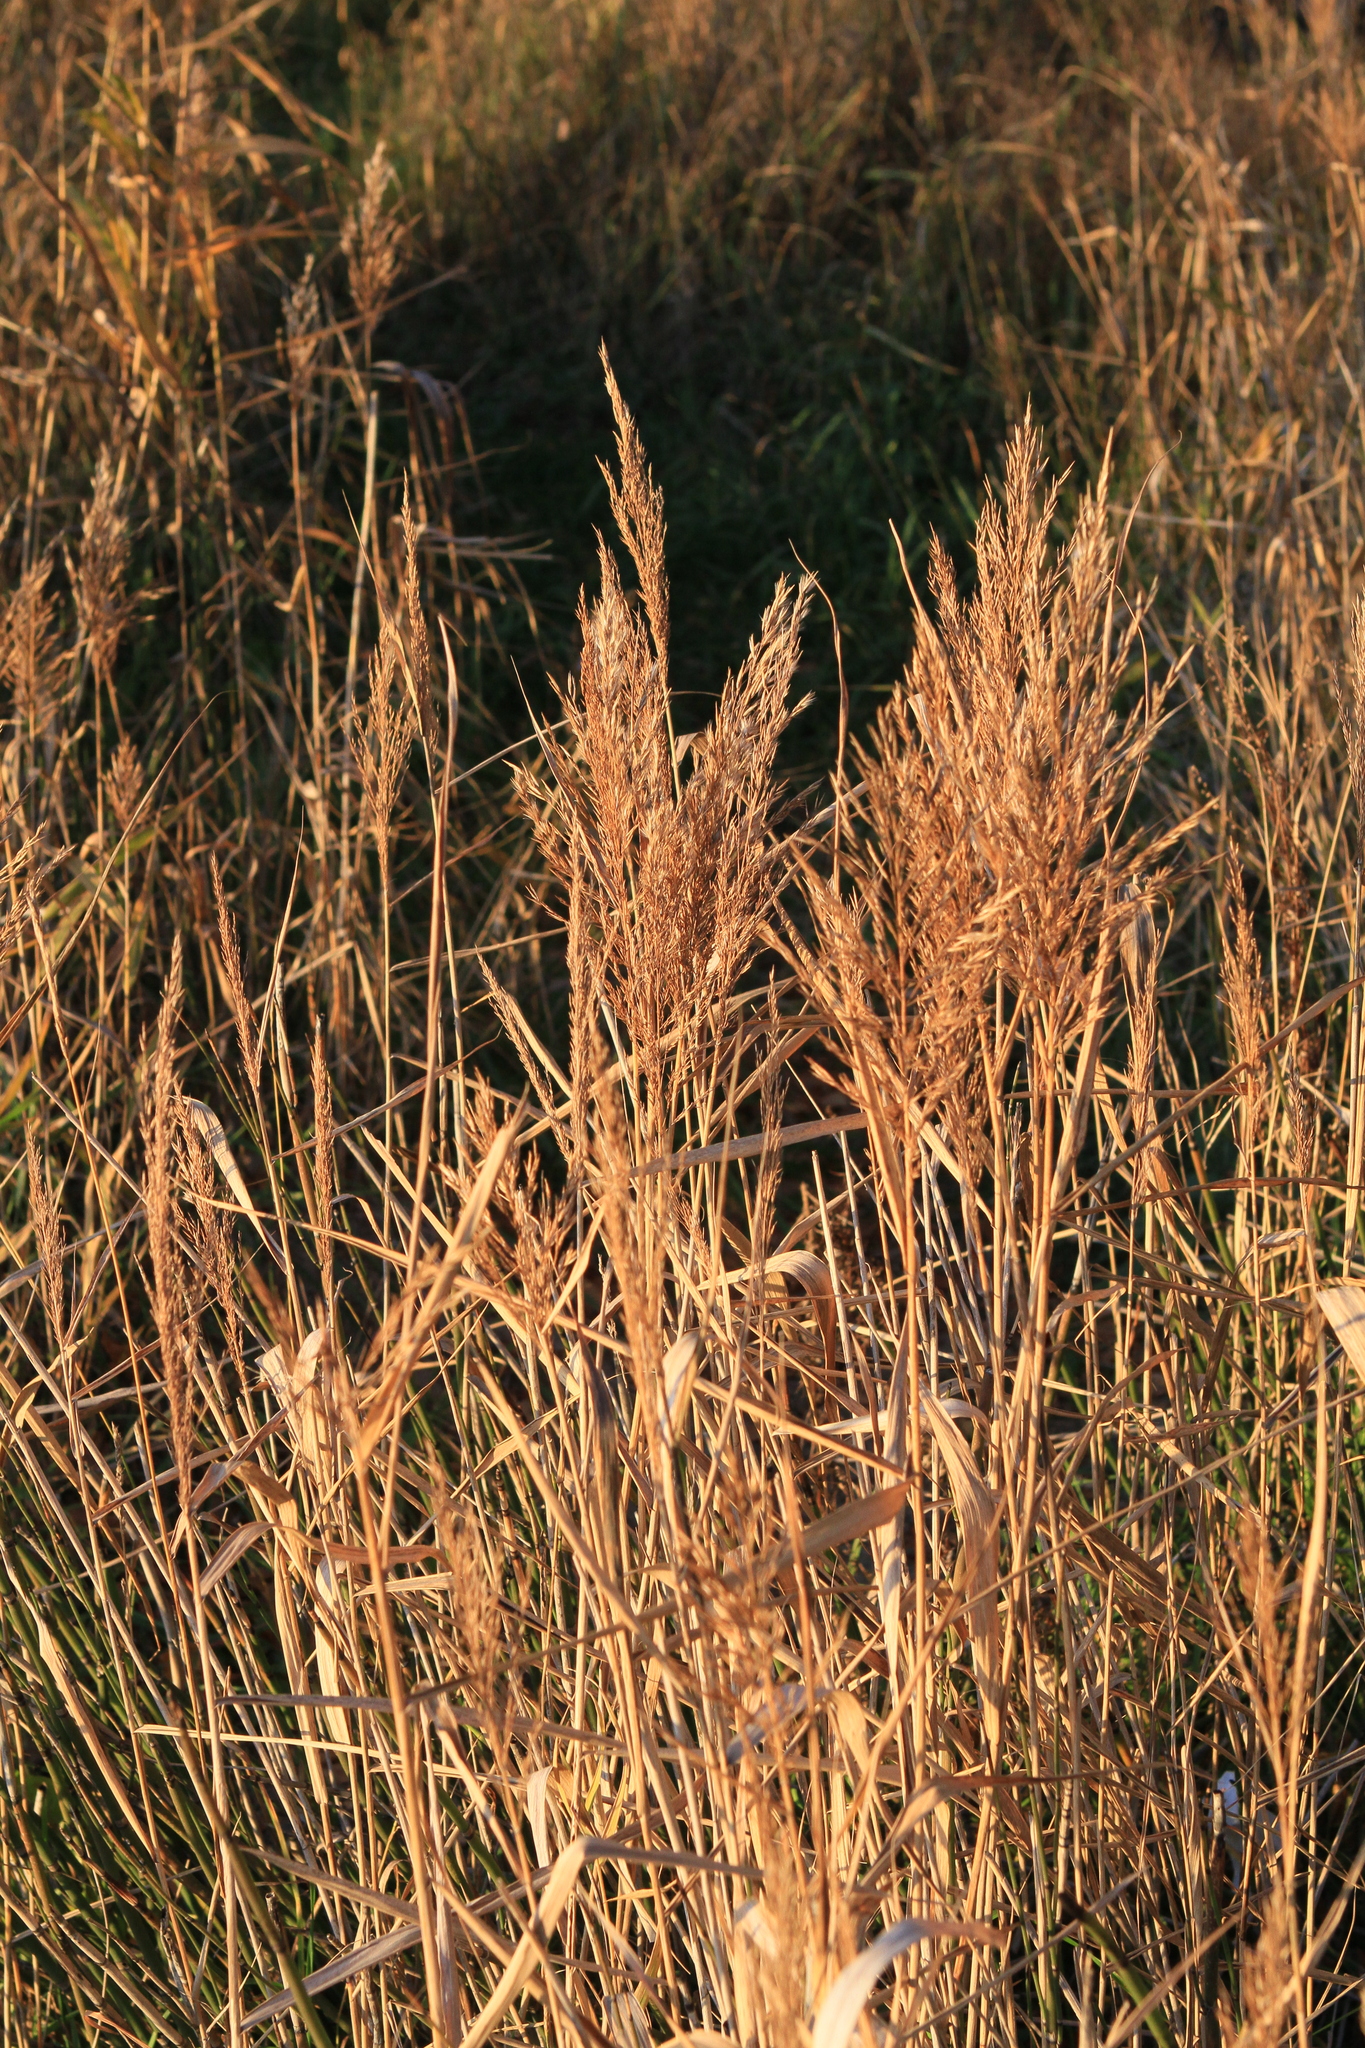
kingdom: Plantae
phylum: Tracheophyta
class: Liliopsida
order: Poales
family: Poaceae
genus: Phragmites
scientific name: Phragmites australis
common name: Common reed
